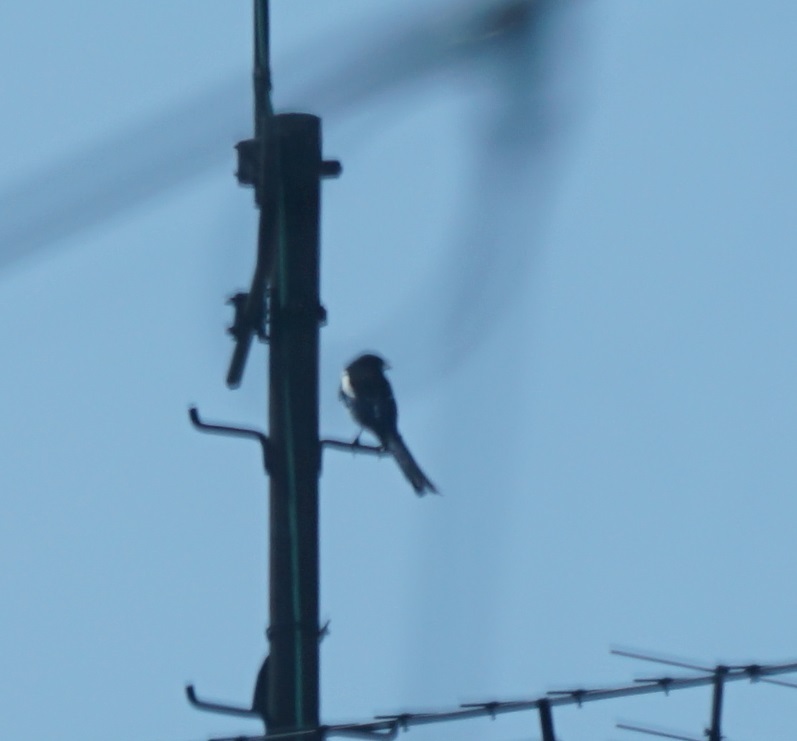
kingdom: Animalia
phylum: Chordata
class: Aves
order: Passeriformes
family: Corvidae
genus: Pica
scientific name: Pica pica
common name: Eurasian magpie
